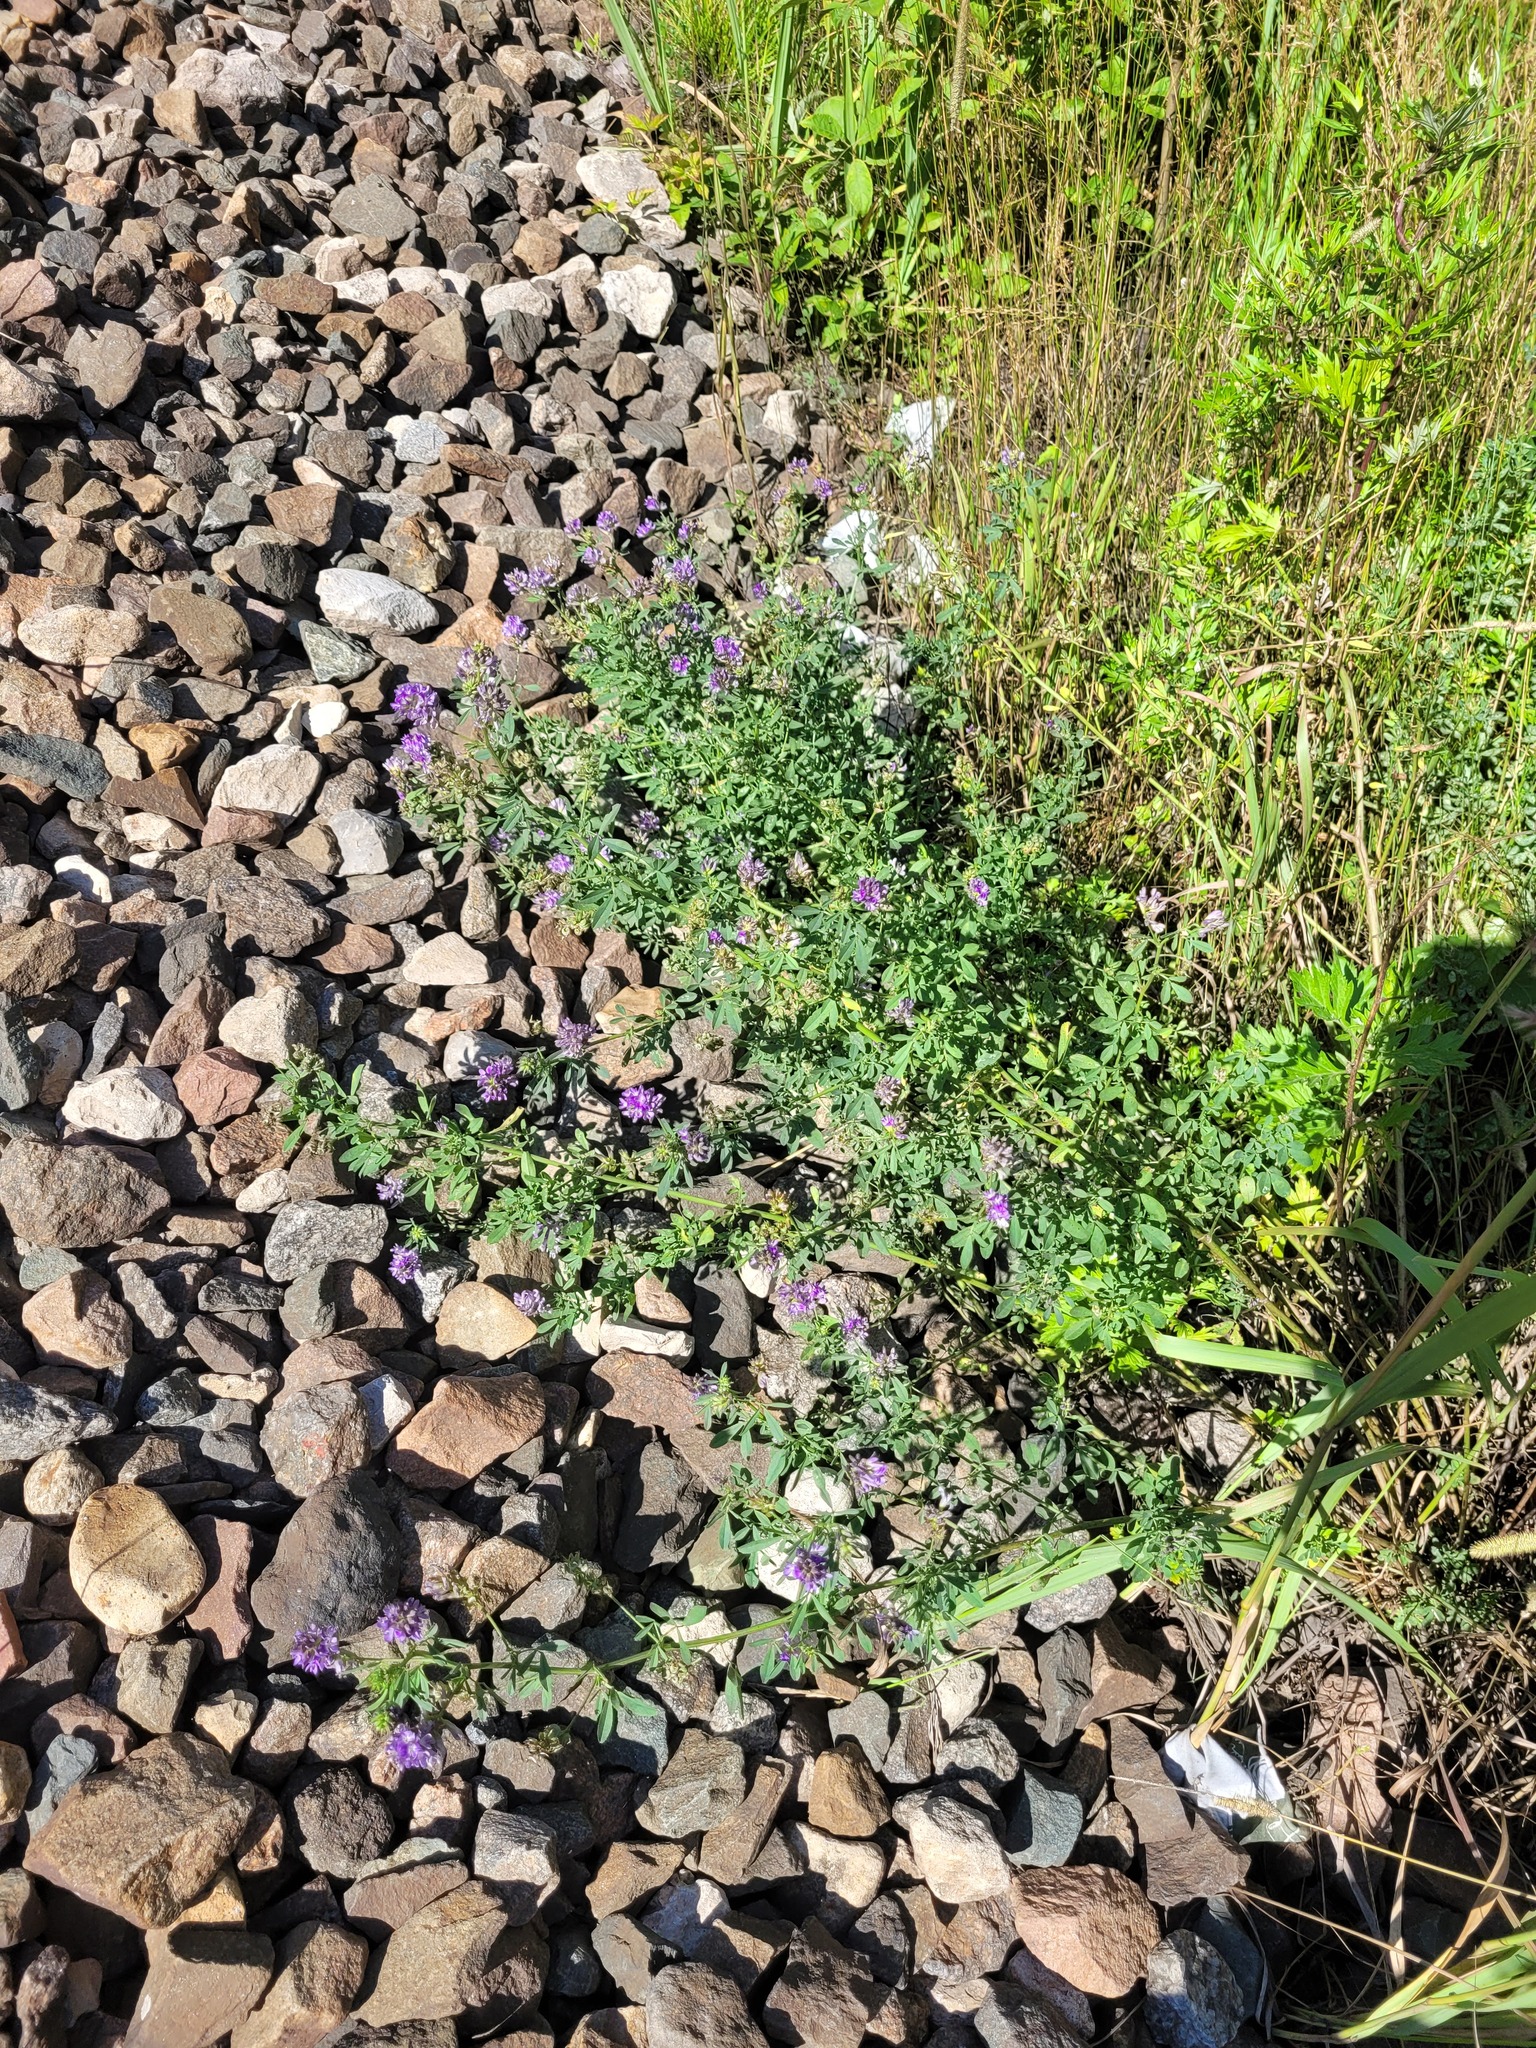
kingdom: Plantae
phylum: Tracheophyta
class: Magnoliopsida
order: Fabales
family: Fabaceae
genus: Medicago
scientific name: Medicago sativa
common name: Alfalfa
